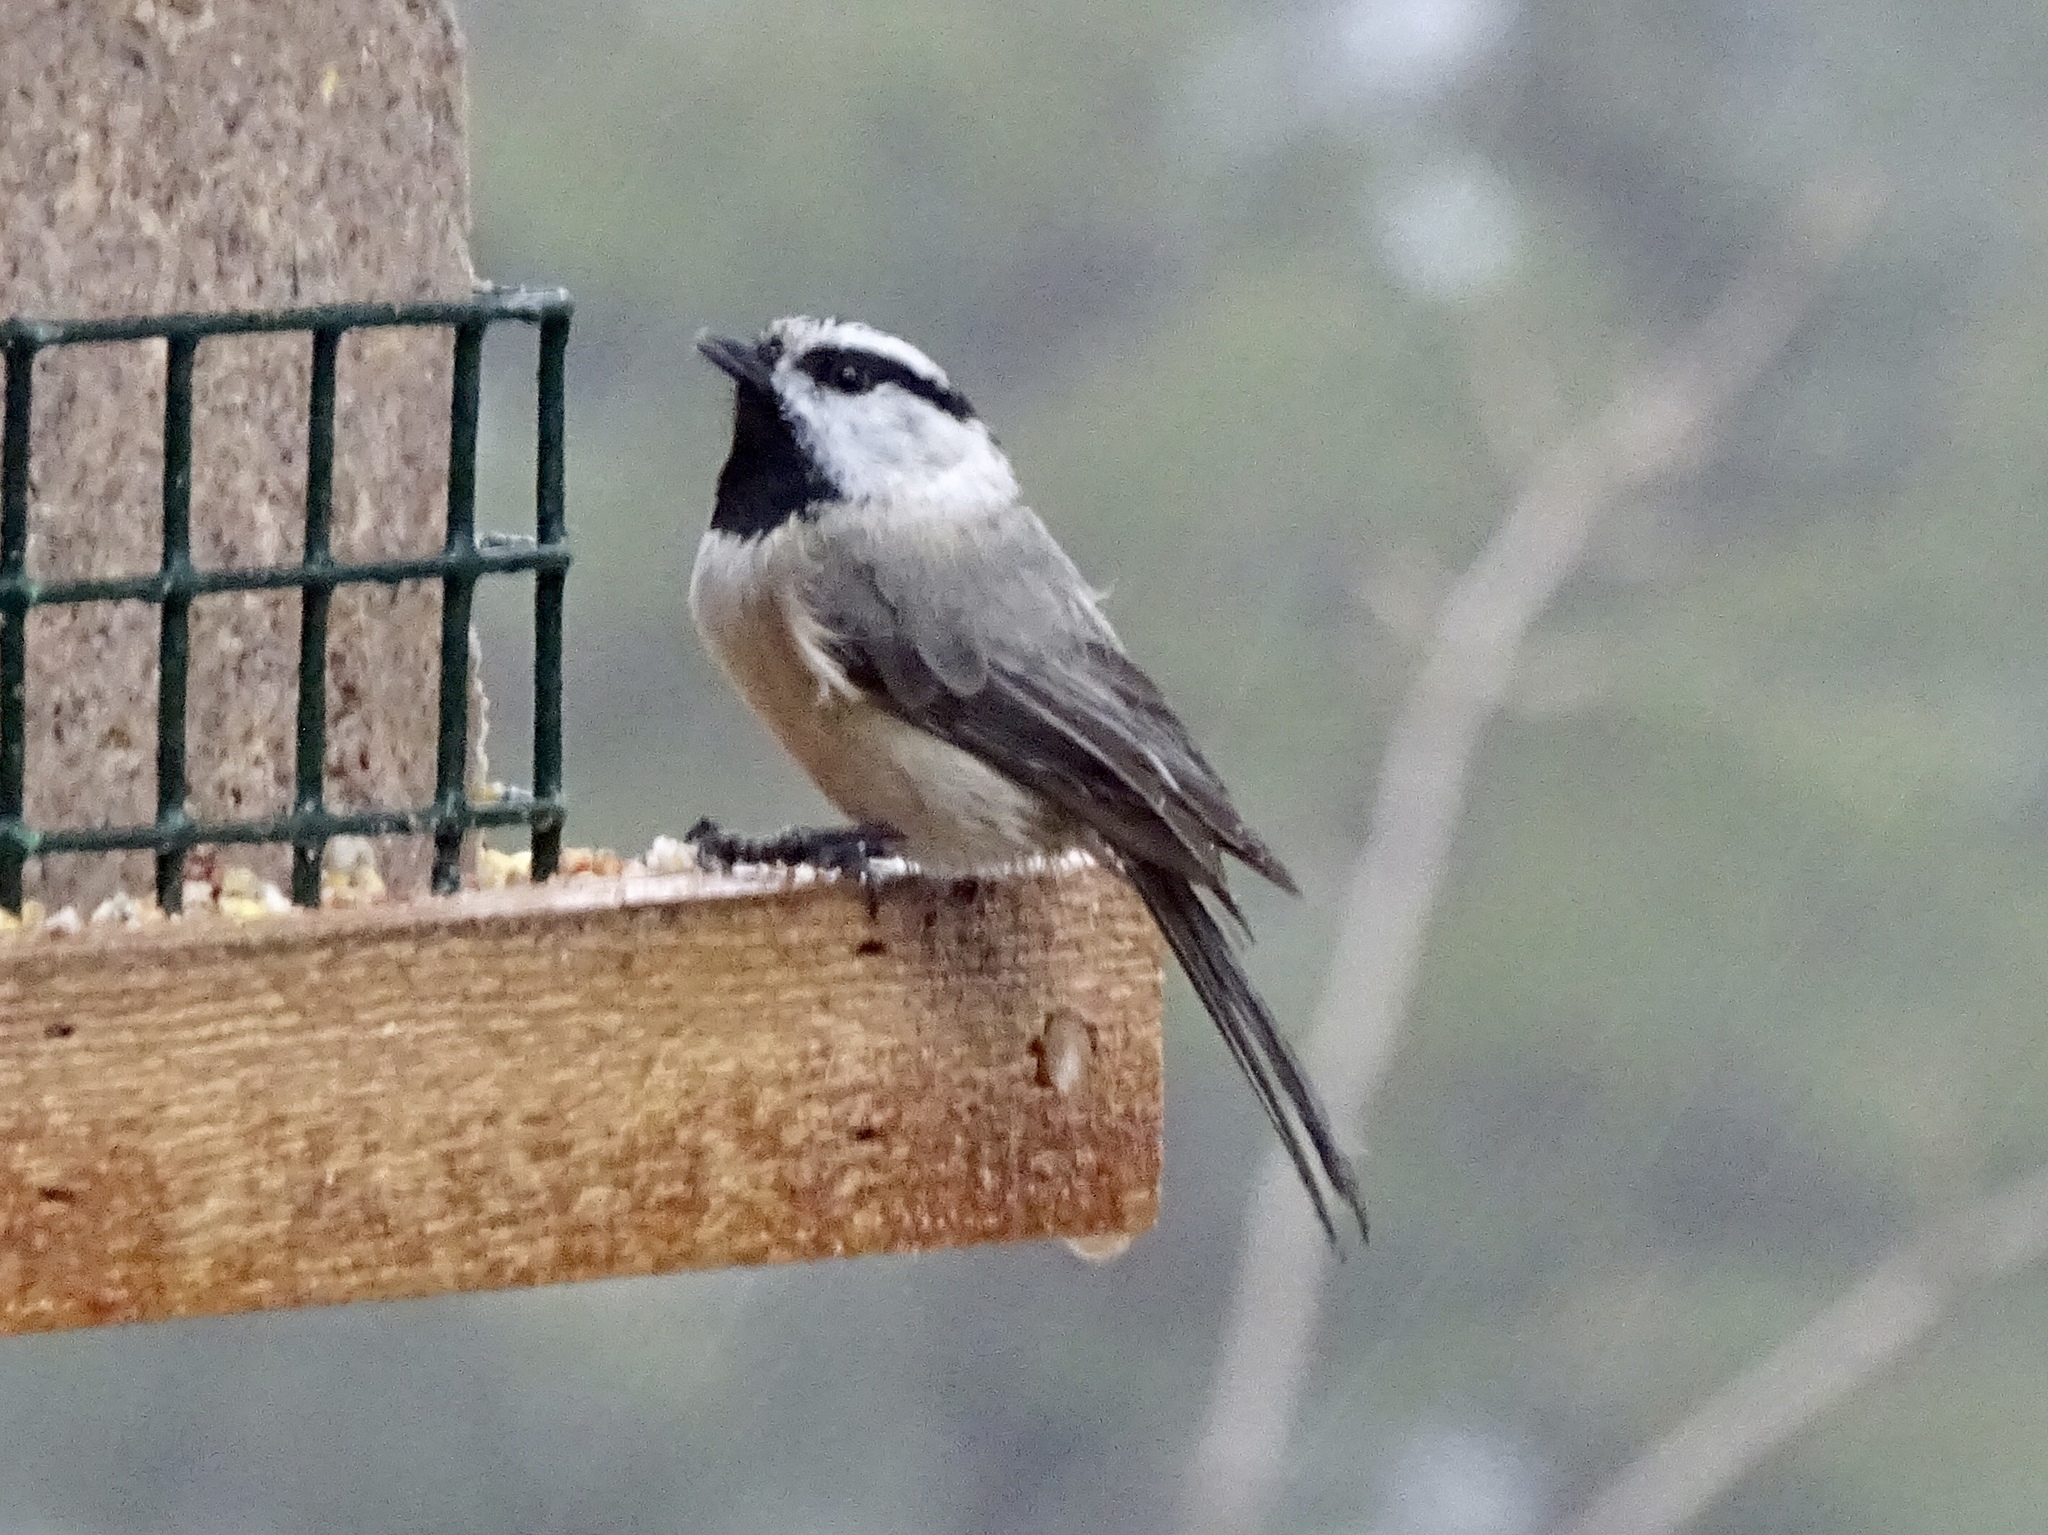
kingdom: Animalia
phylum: Chordata
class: Aves
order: Passeriformes
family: Paridae
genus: Poecile
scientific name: Poecile gambeli
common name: Mountain chickadee
